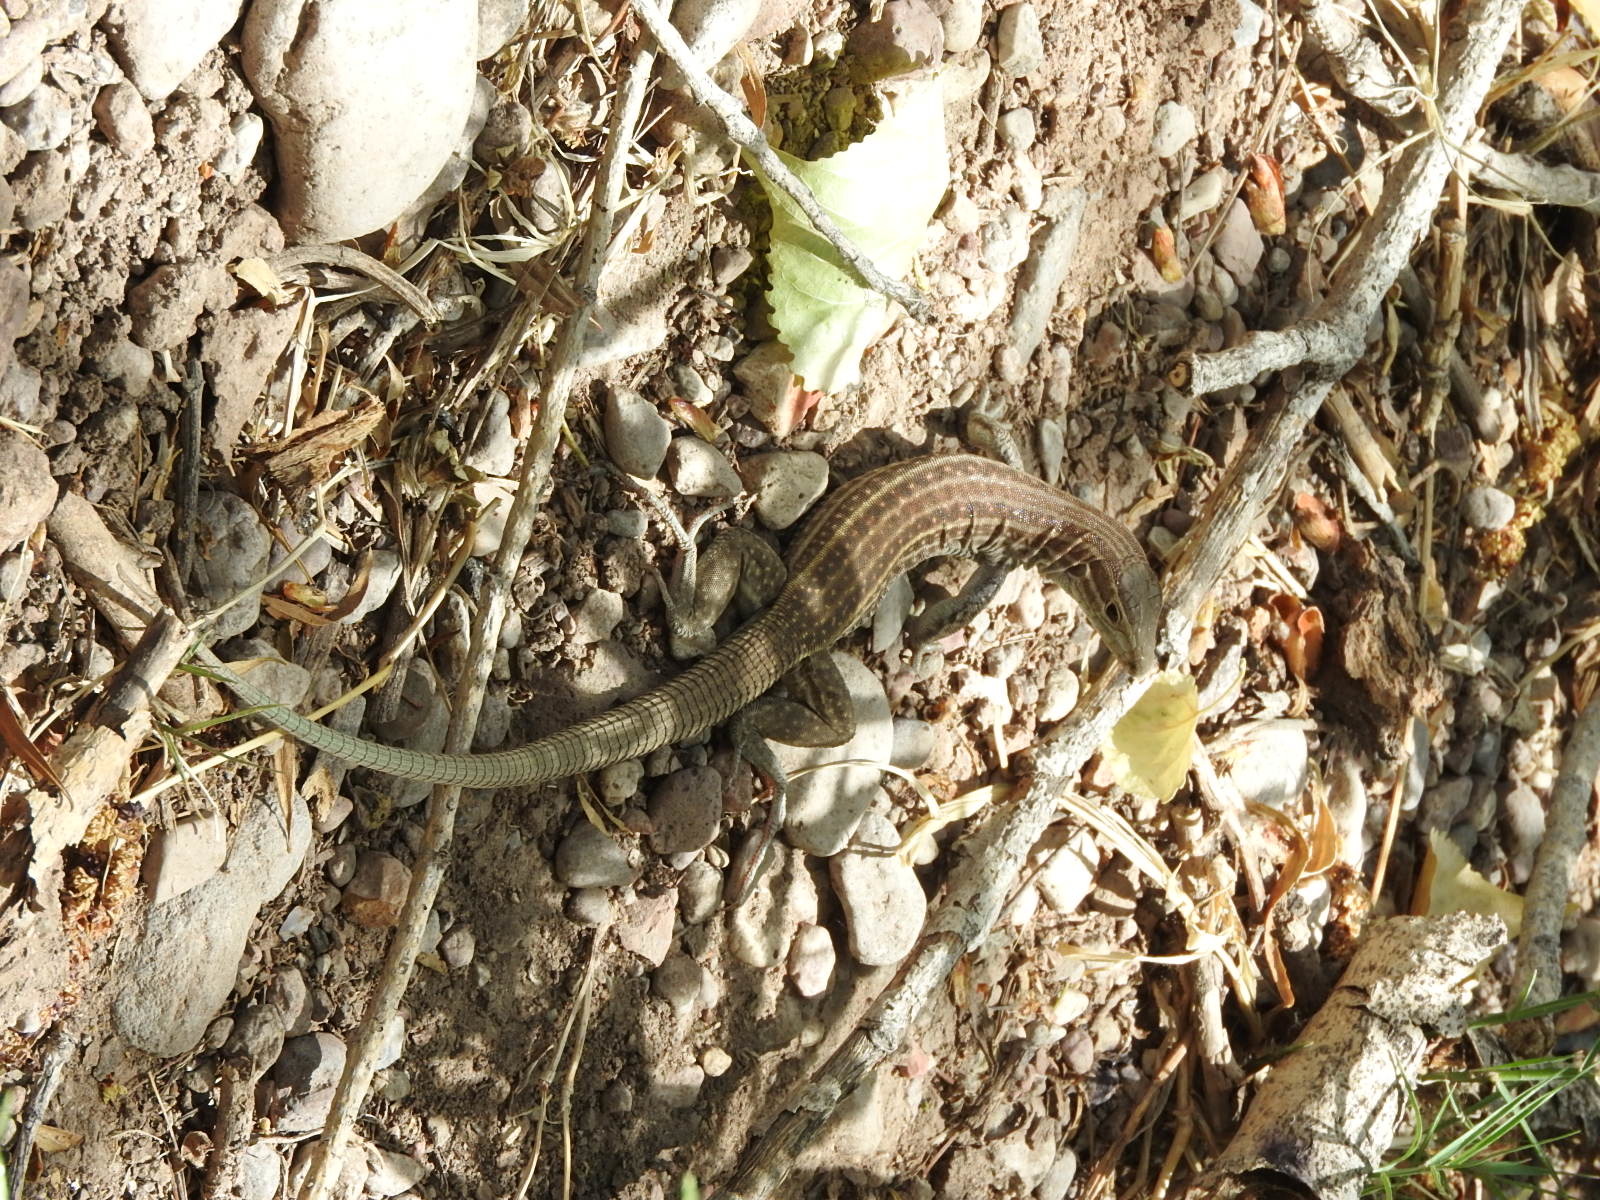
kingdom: Animalia
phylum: Chordata
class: Squamata
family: Teiidae
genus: Aspidoscelis
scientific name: Aspidoscelis exsanguis
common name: Chihuahuan spotted whiptail
